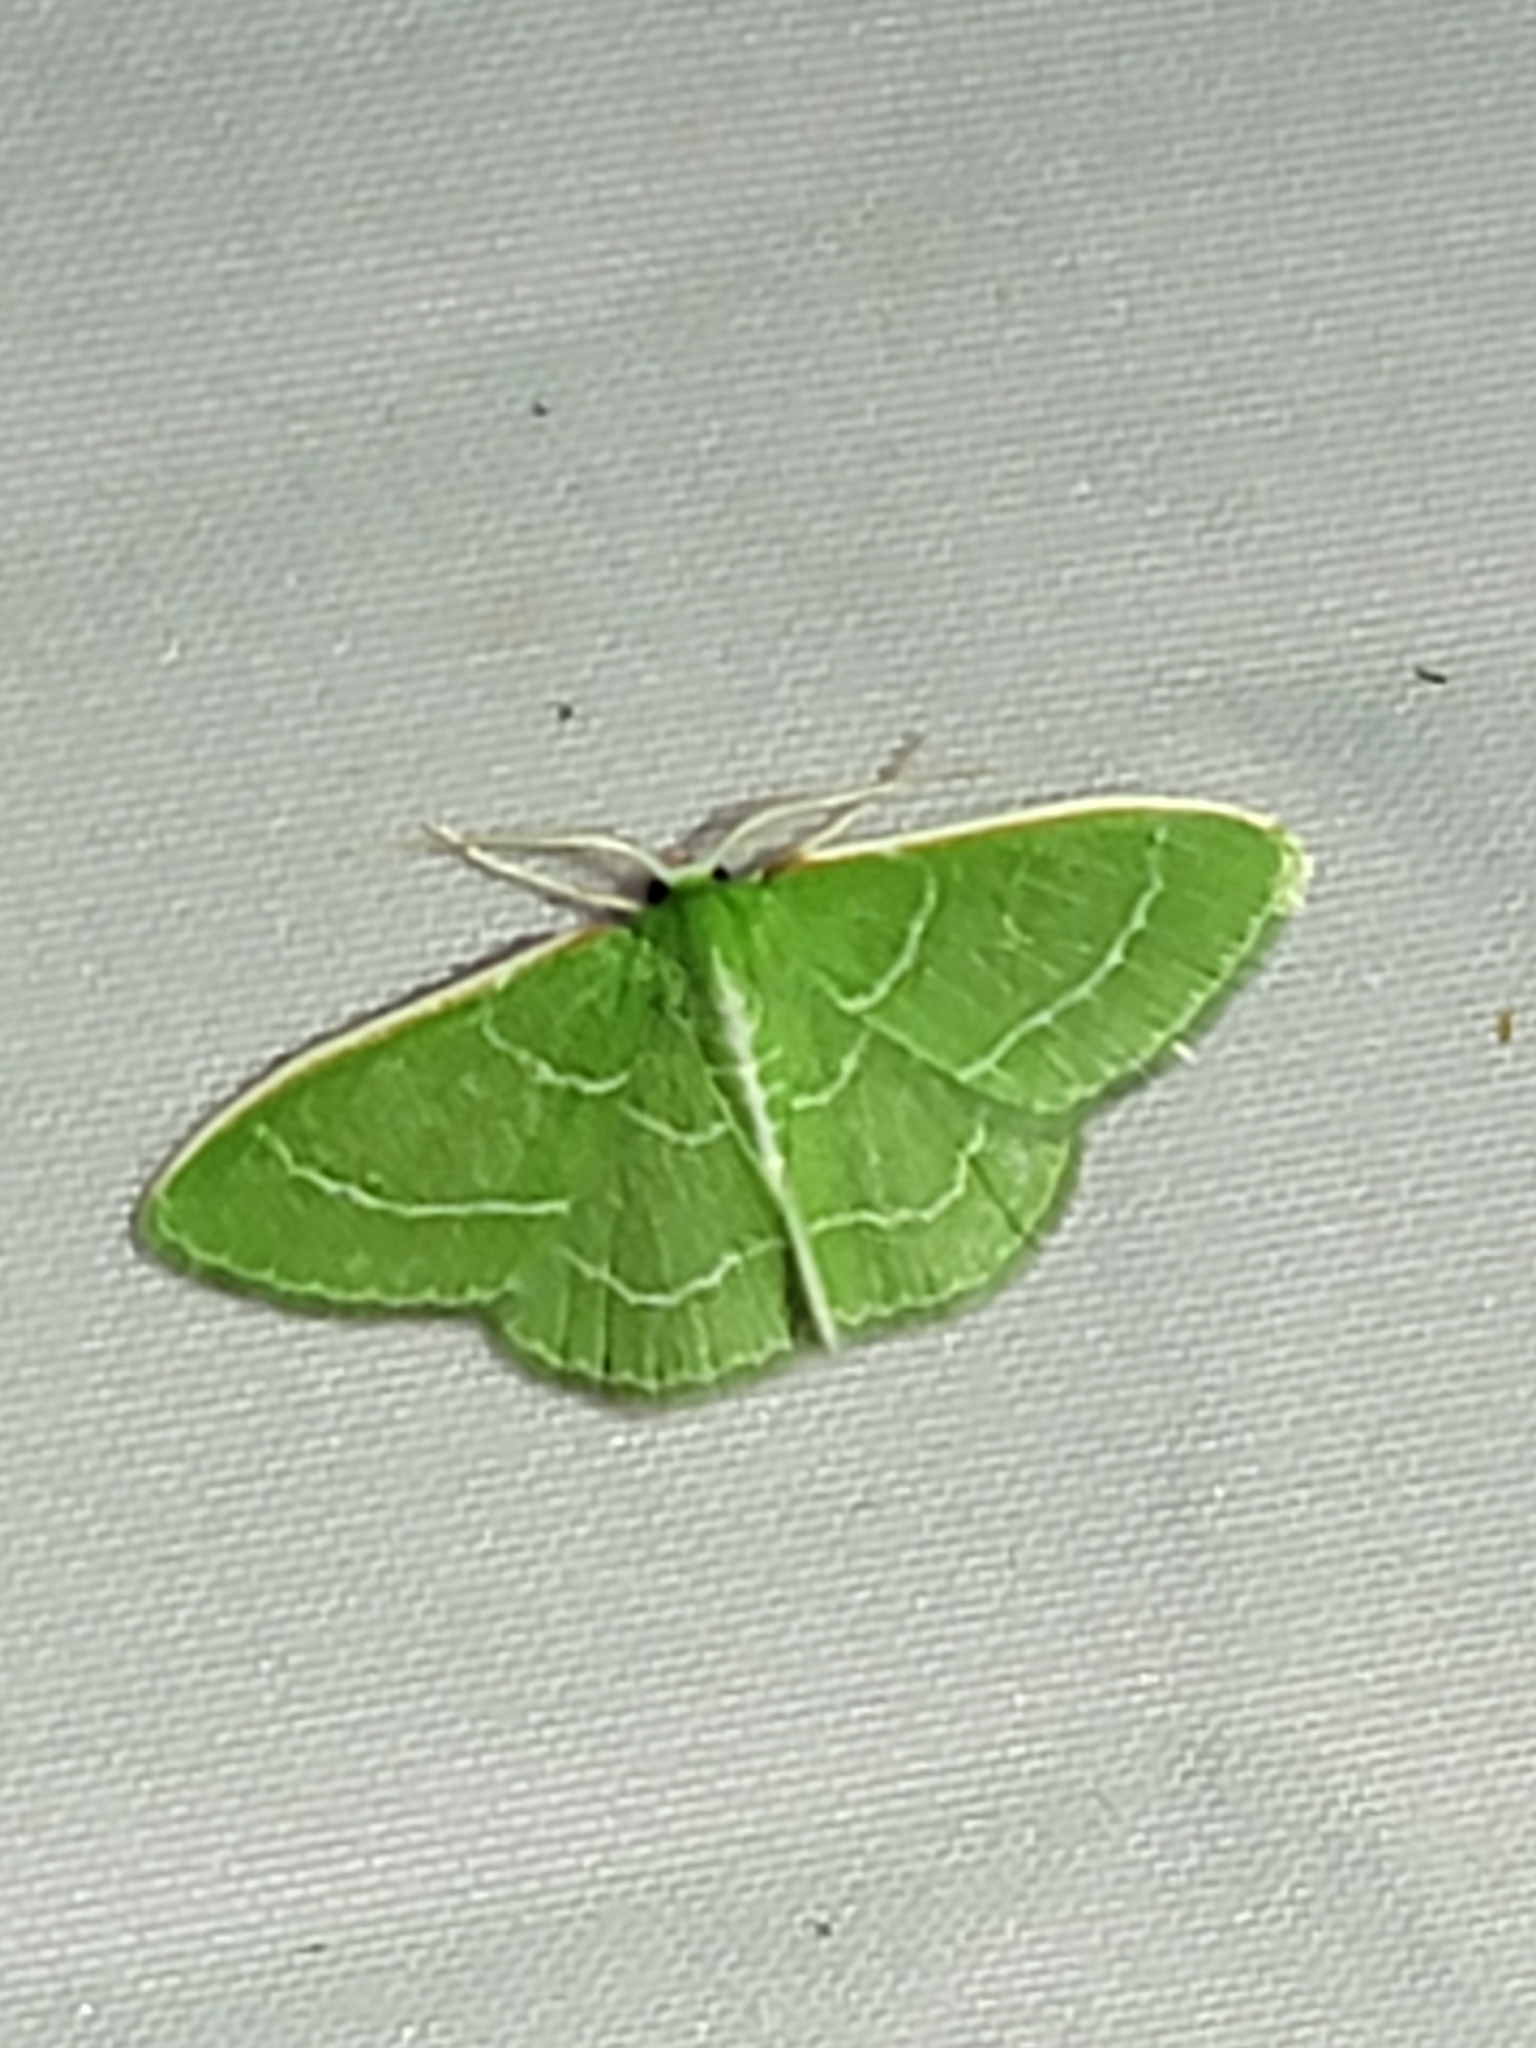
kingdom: Animalia
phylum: Arthropoda
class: Insecta
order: Lepidoptera
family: Geometridae
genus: Synchlora
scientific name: Synchlora aerata
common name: Wavy-lined emerald
